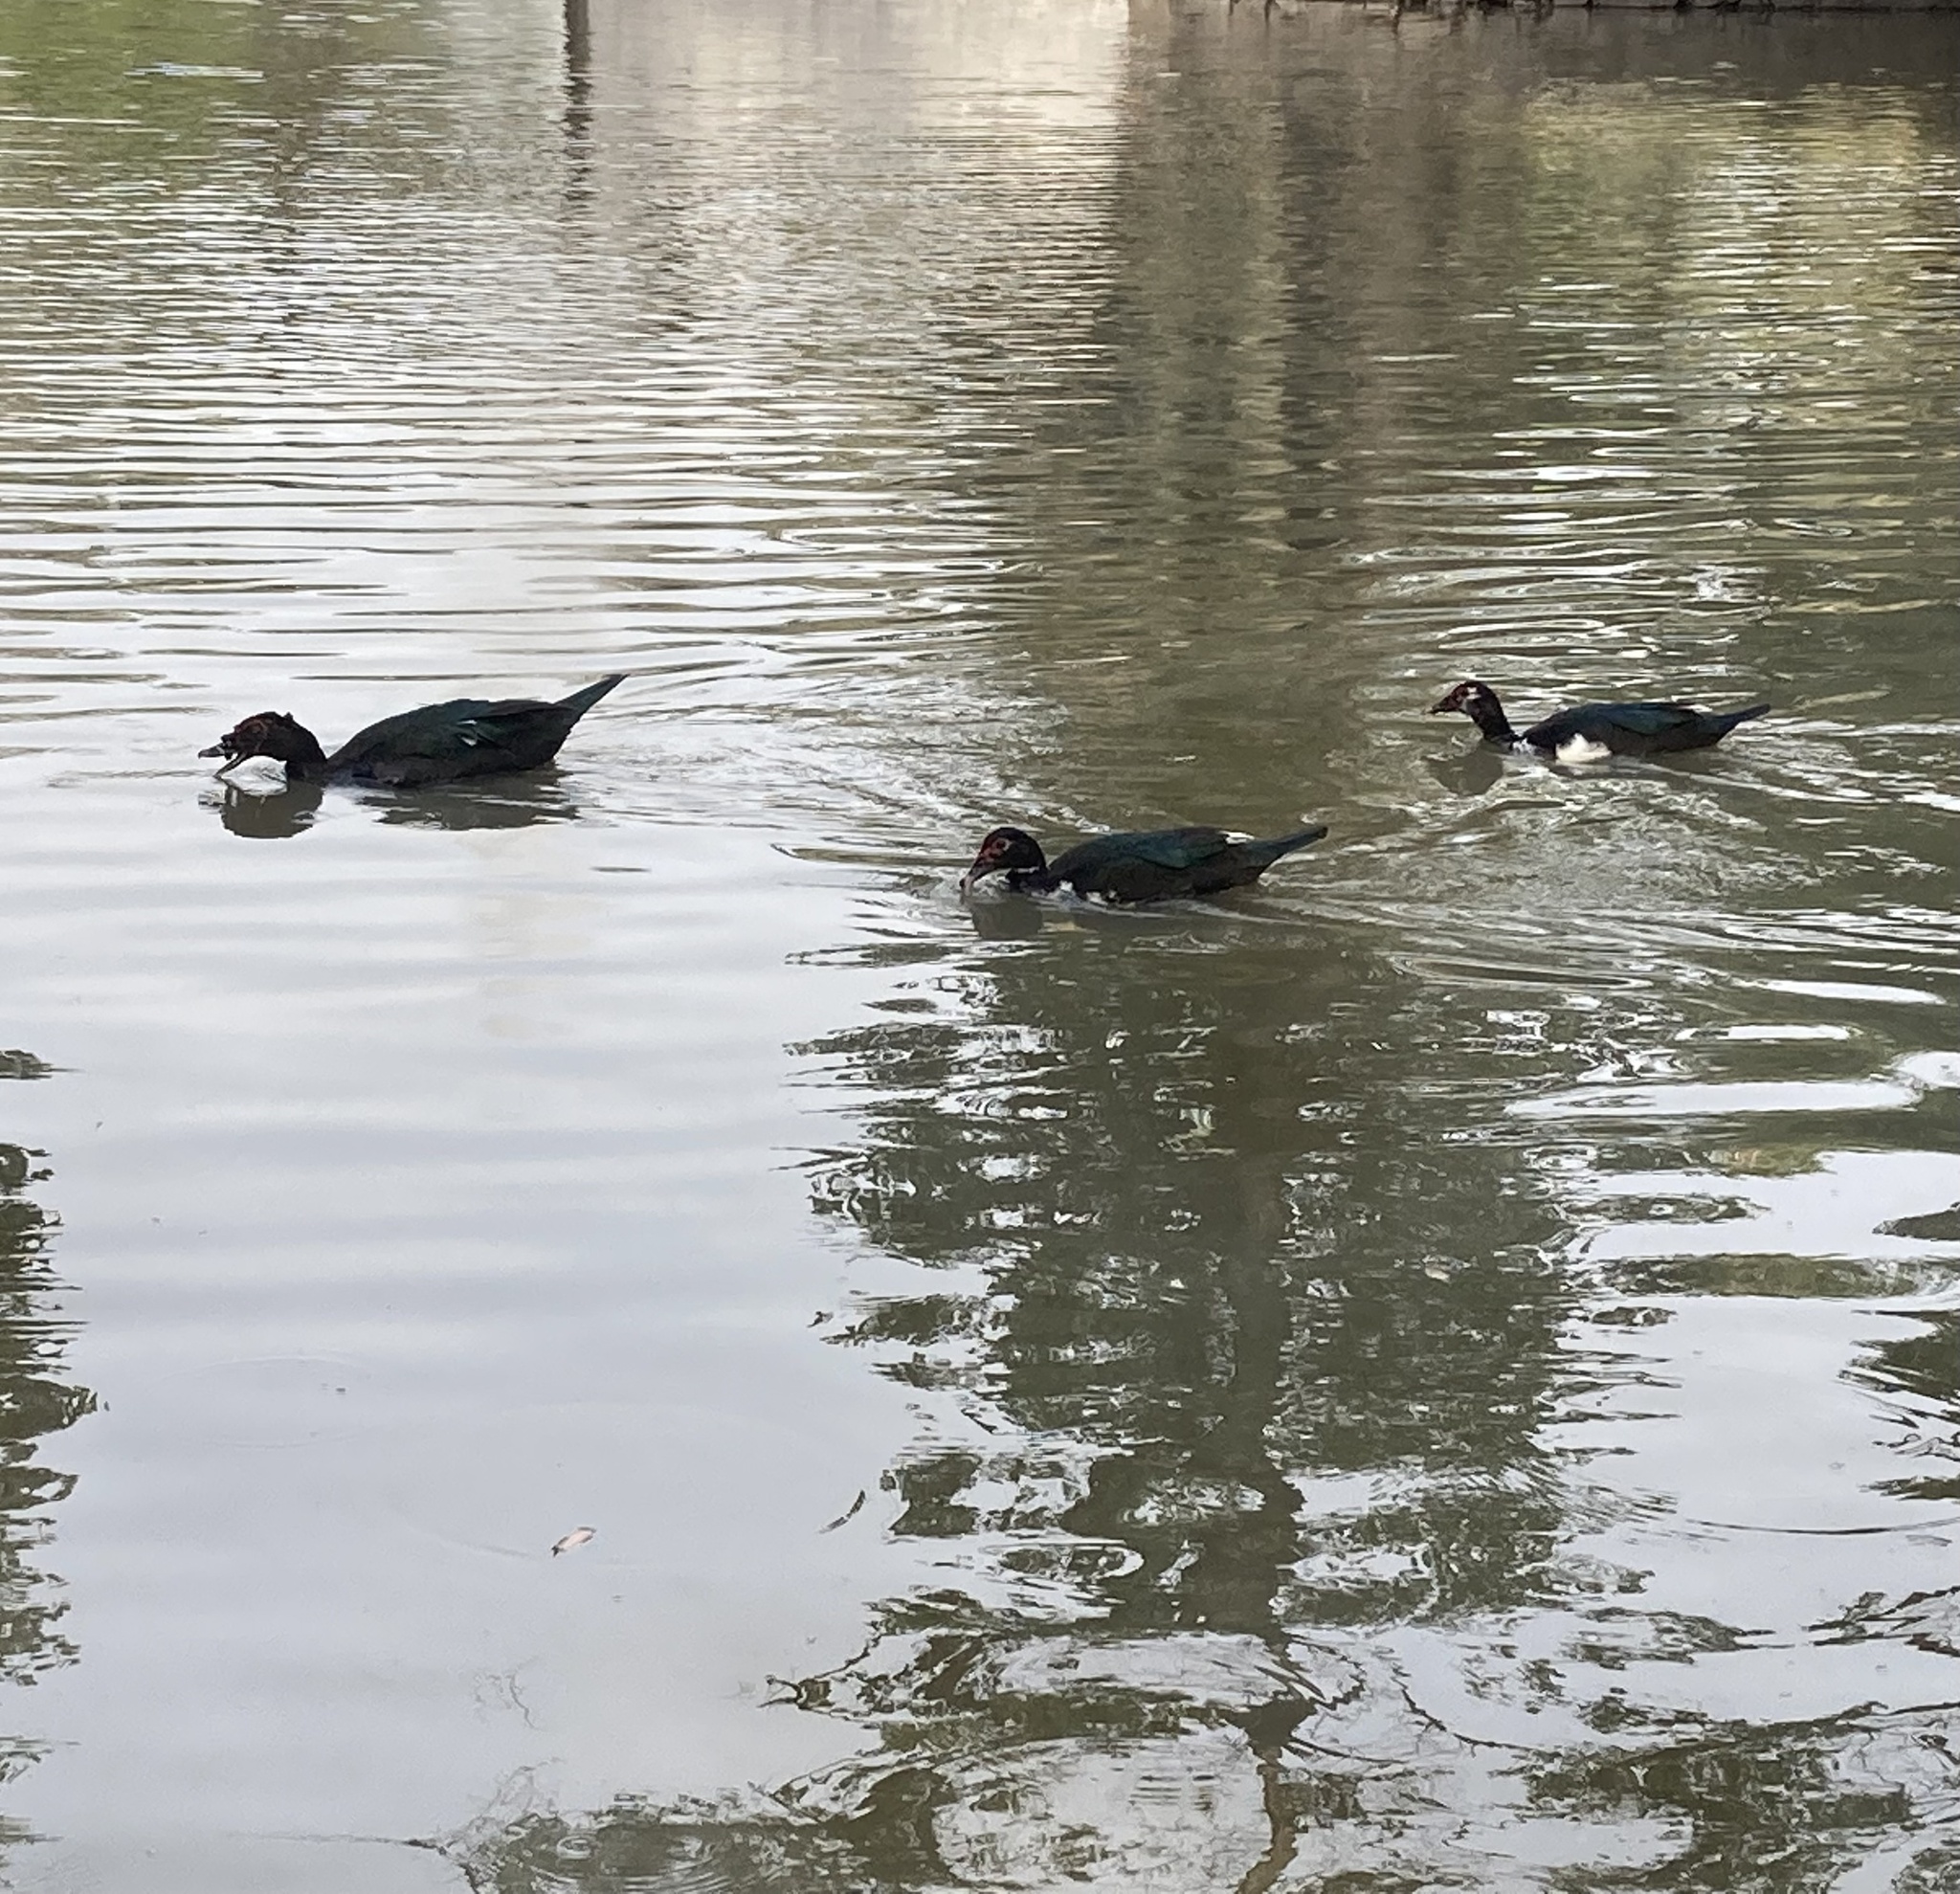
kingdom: Animalia
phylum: Chordata
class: Aves
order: Anseriformes
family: Anatidae
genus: Cairina
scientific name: Cairina moschata
